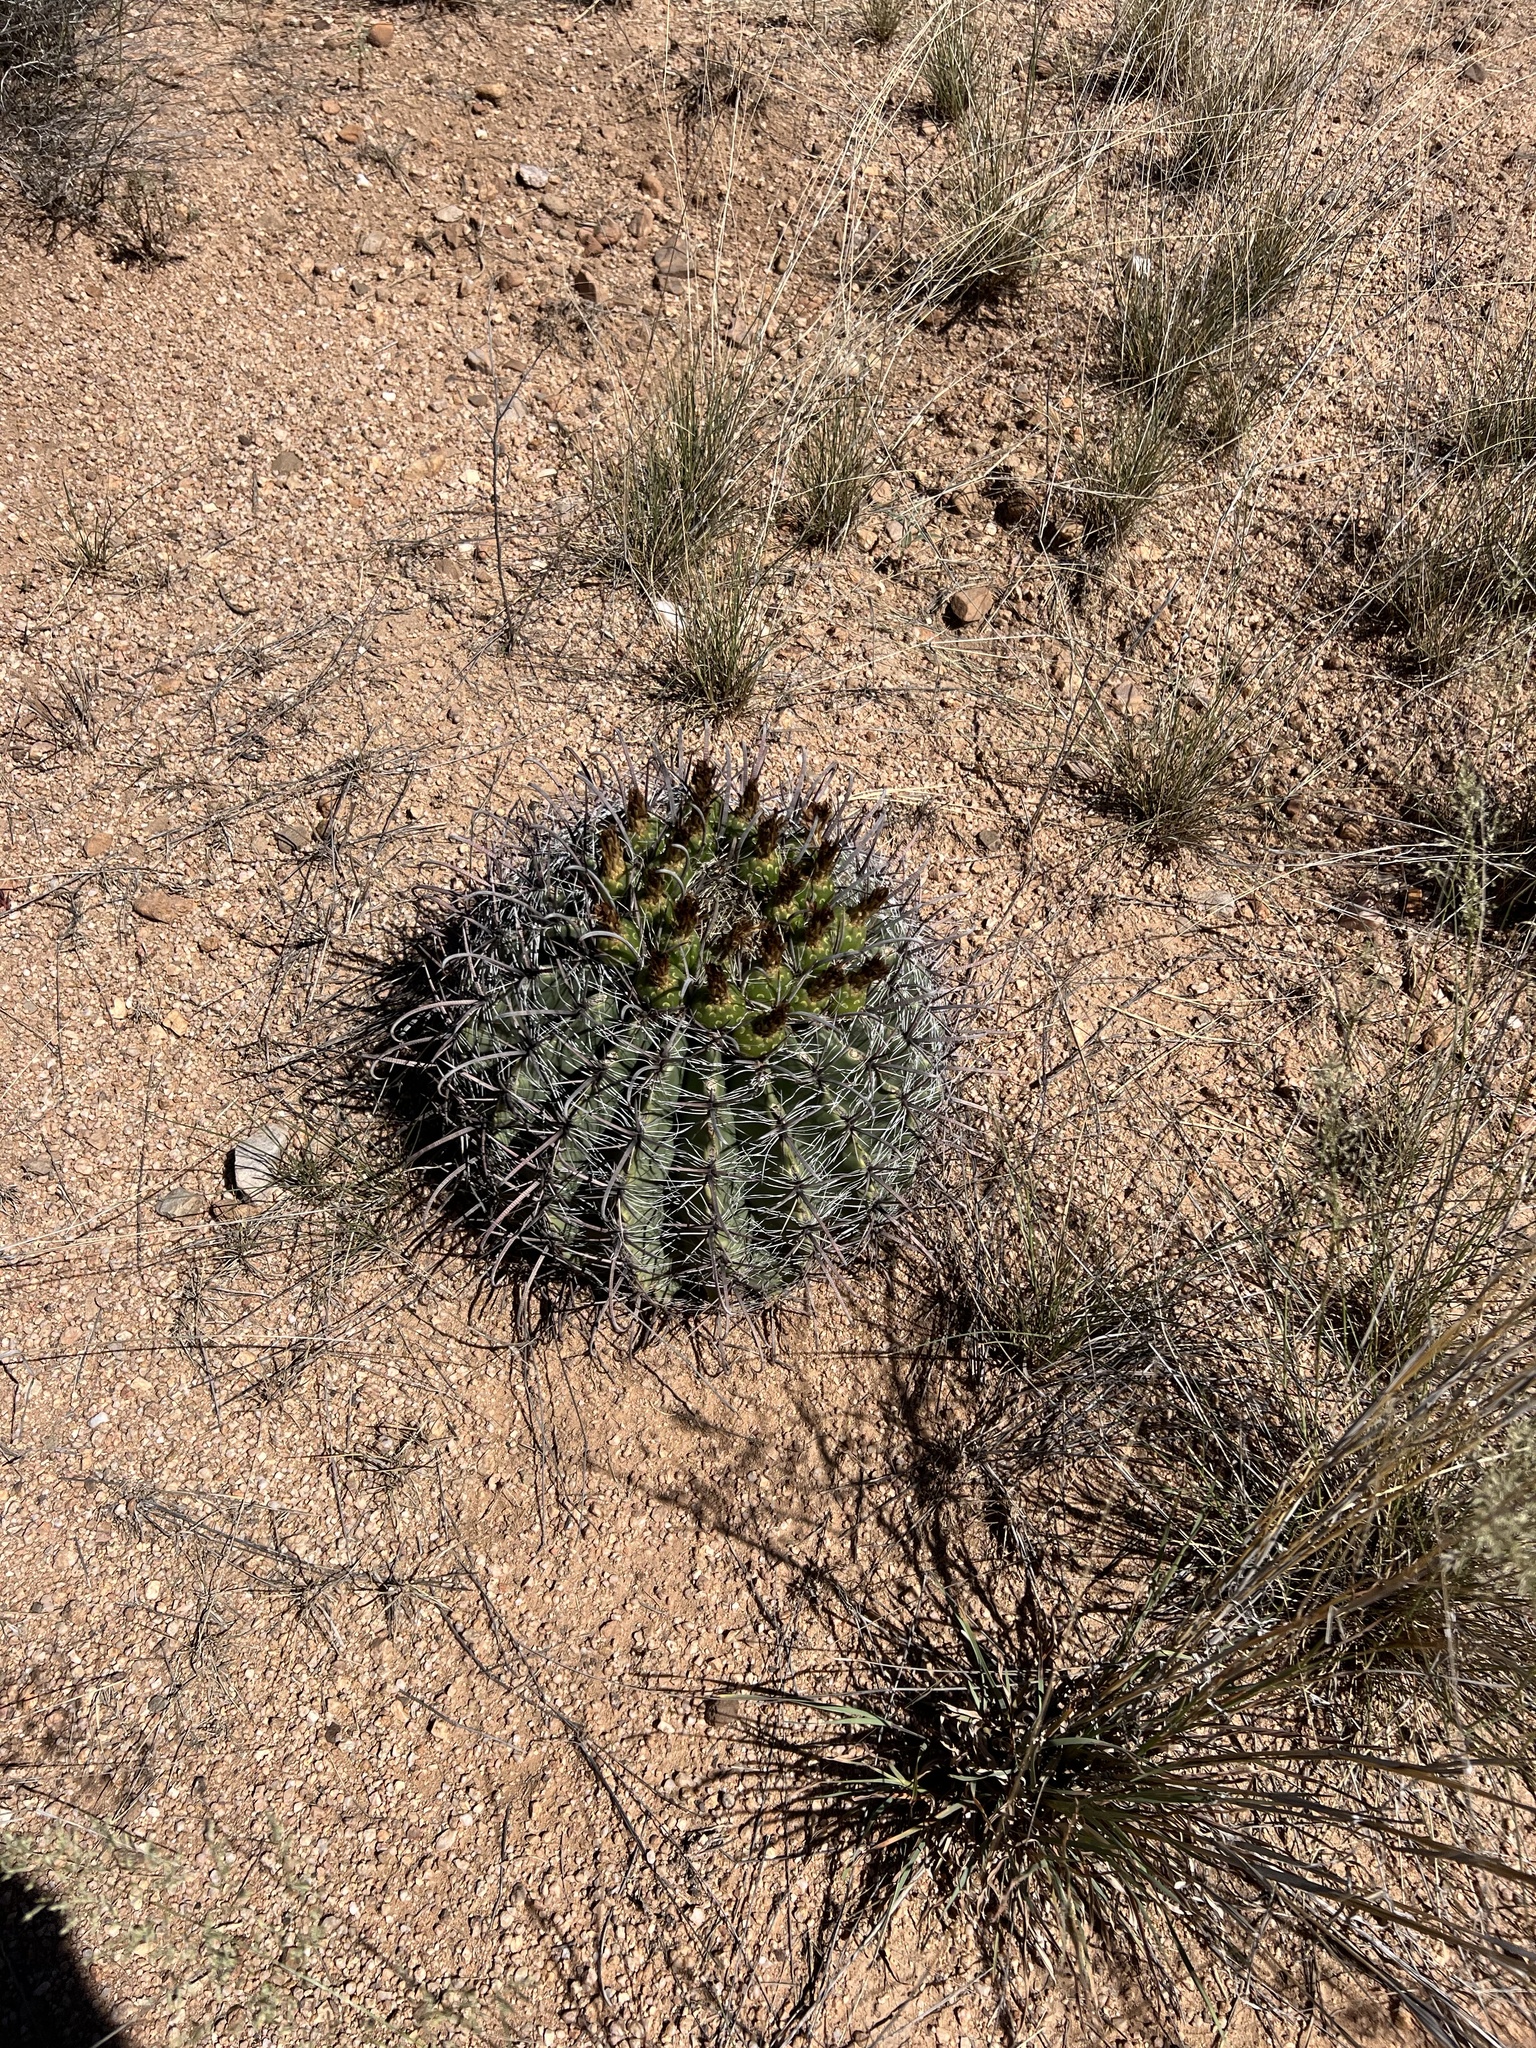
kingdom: Plantae
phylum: Tracheophyta
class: Magnoliopsida
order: Caryophyllales
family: Cactaceae
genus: Ferocactus
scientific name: Ferocactus wislizeni
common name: Candy barrel cactus
